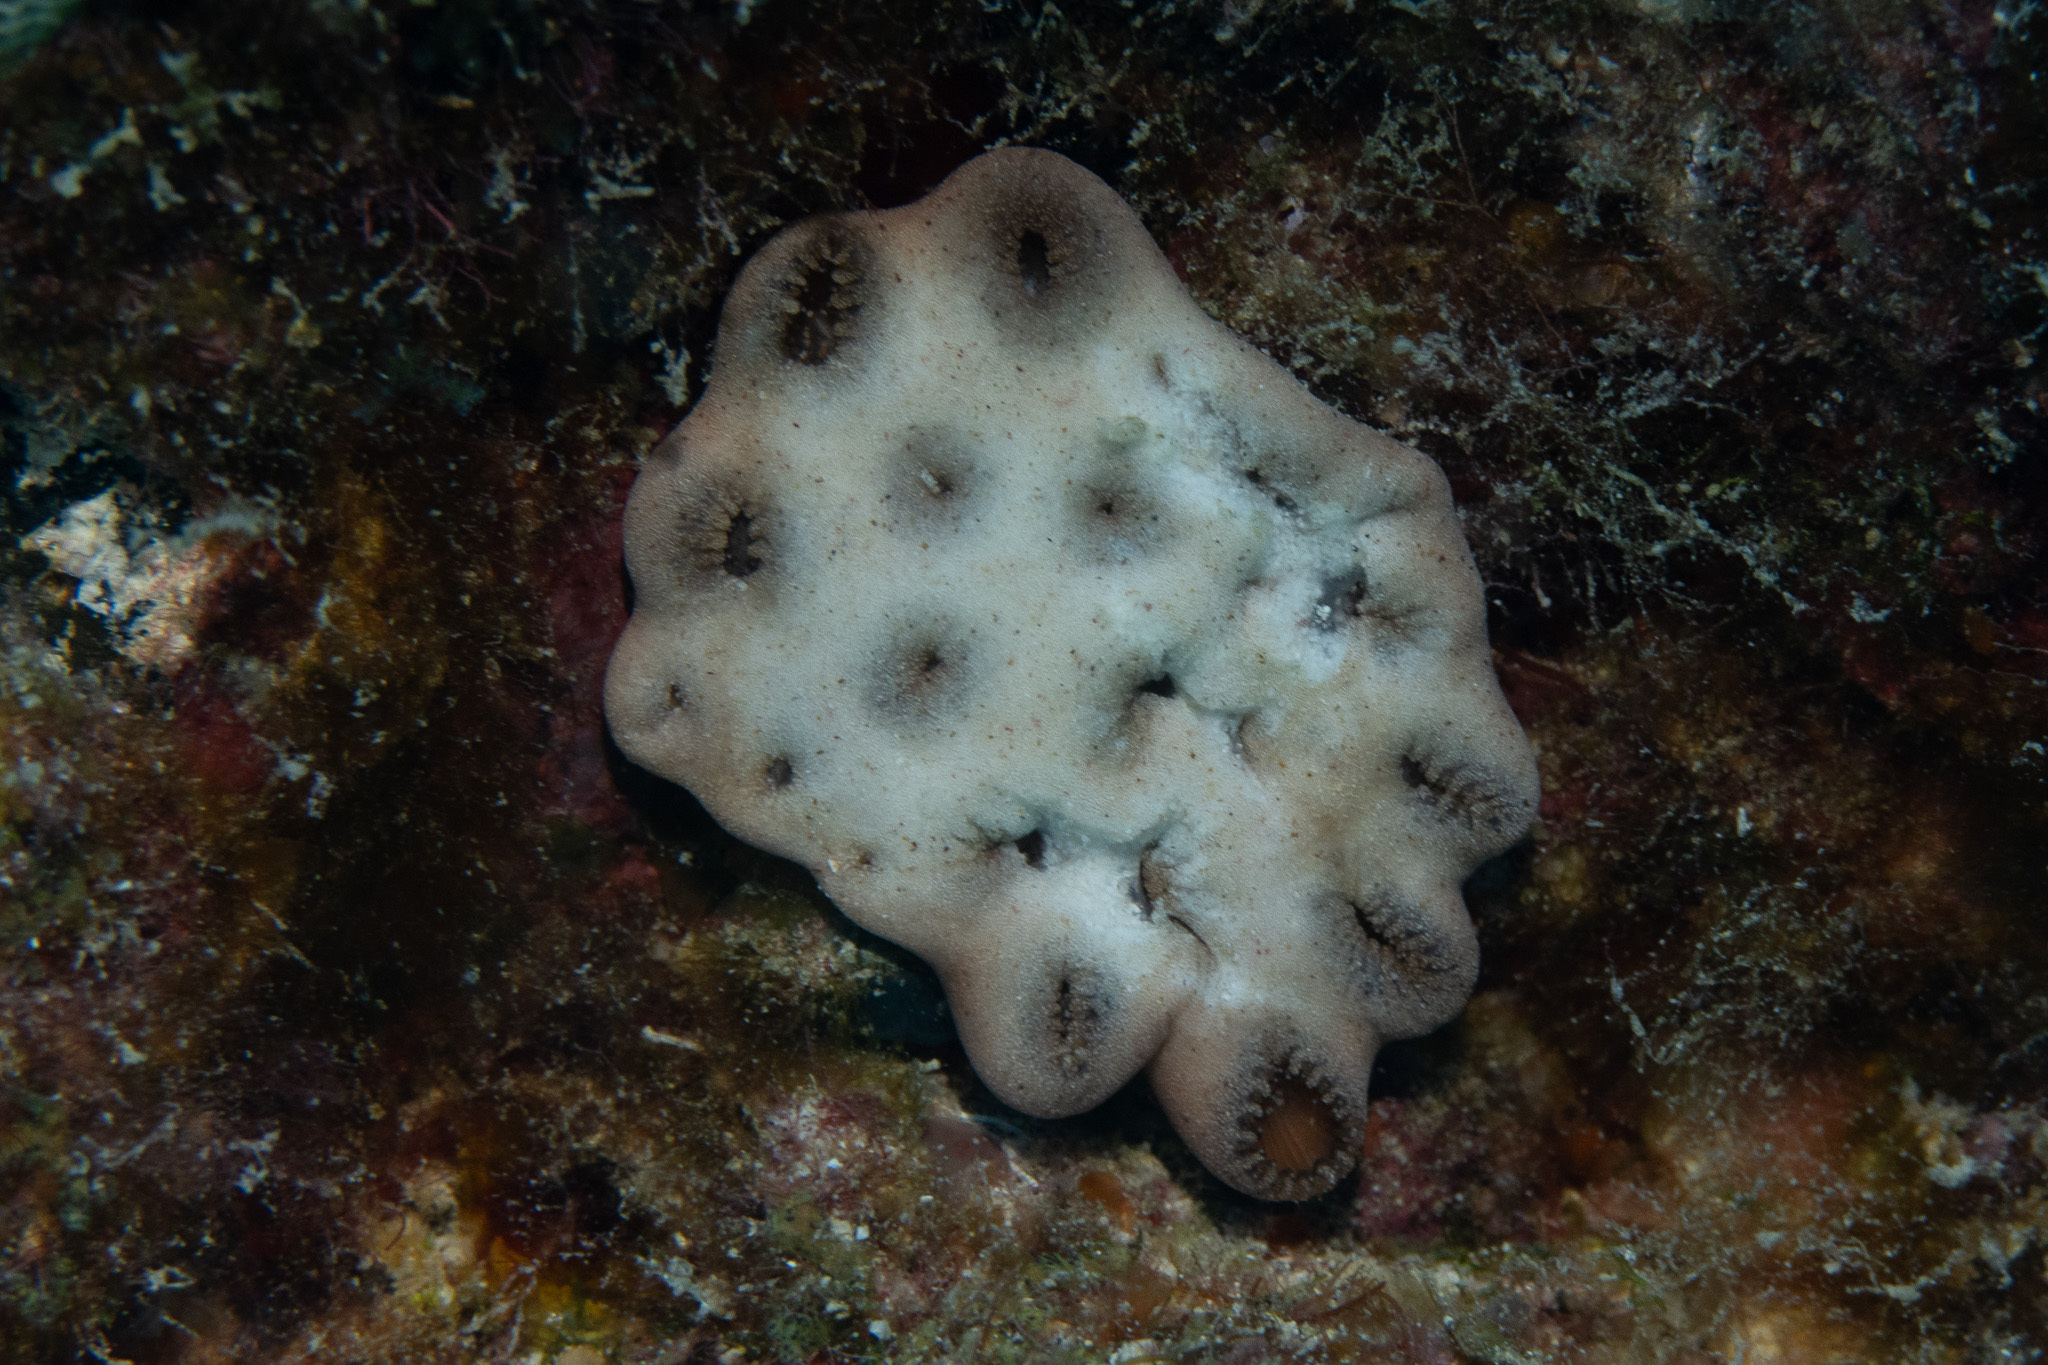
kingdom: Animalia
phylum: Cnidaria
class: Anthozoa
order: Zoantharia
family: Sphenopidae
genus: Palythoa
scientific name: Palythoa tuberculosa
